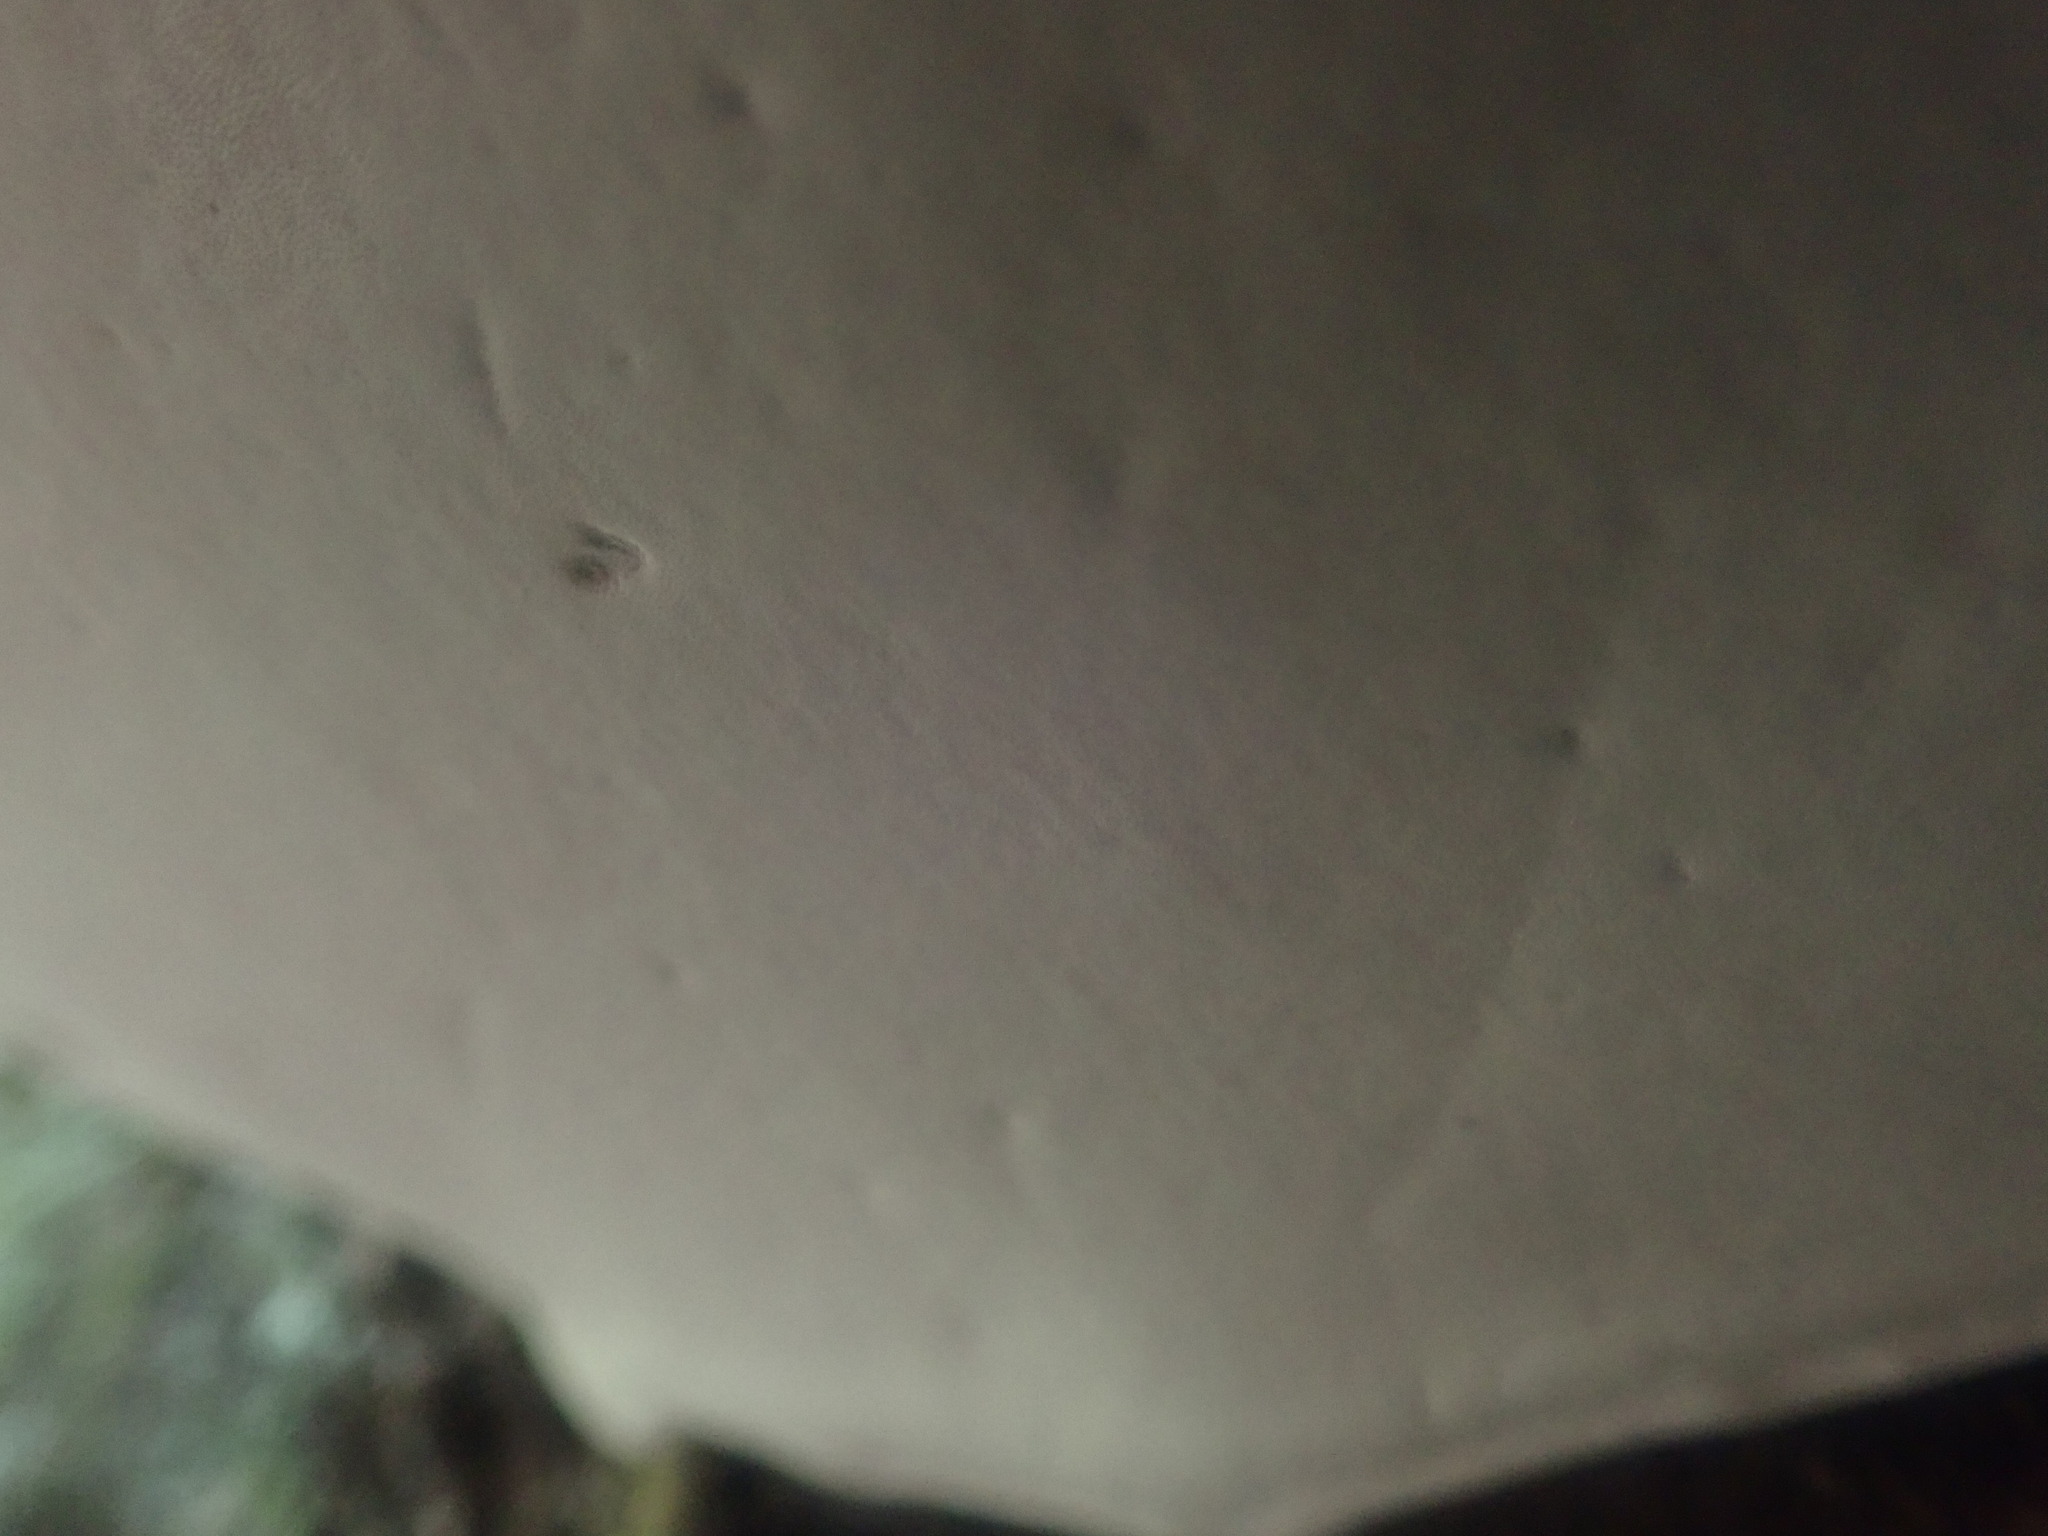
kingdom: Fungi
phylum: Basidiomycota
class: Agaricomycetes
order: Polyporales
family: Polyporaceae
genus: Ganoderma
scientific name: Ganoderma applanatum
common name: Artist's bracket
